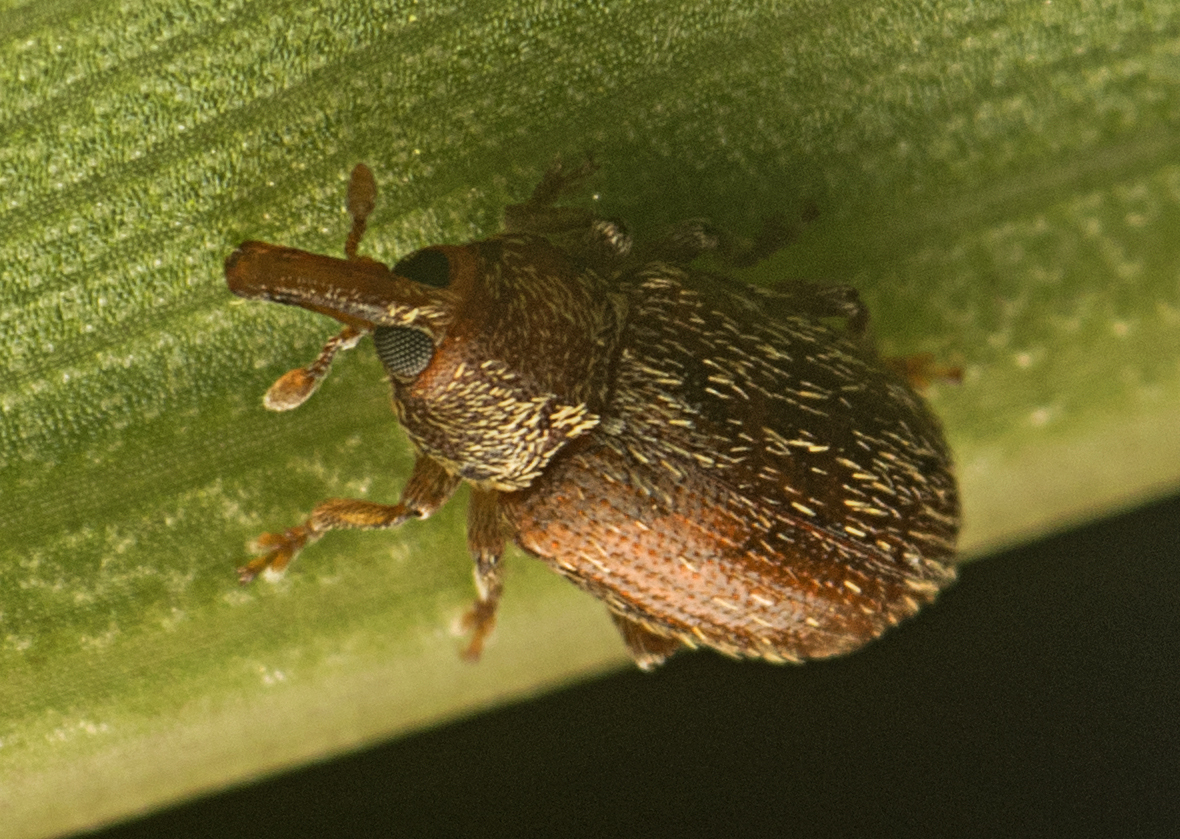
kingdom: Animalia
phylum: Arthropoda
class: Insecta
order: Coleoptera
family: Curculionidae
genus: Elleschodes
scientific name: Elleschodes hamiltoni
